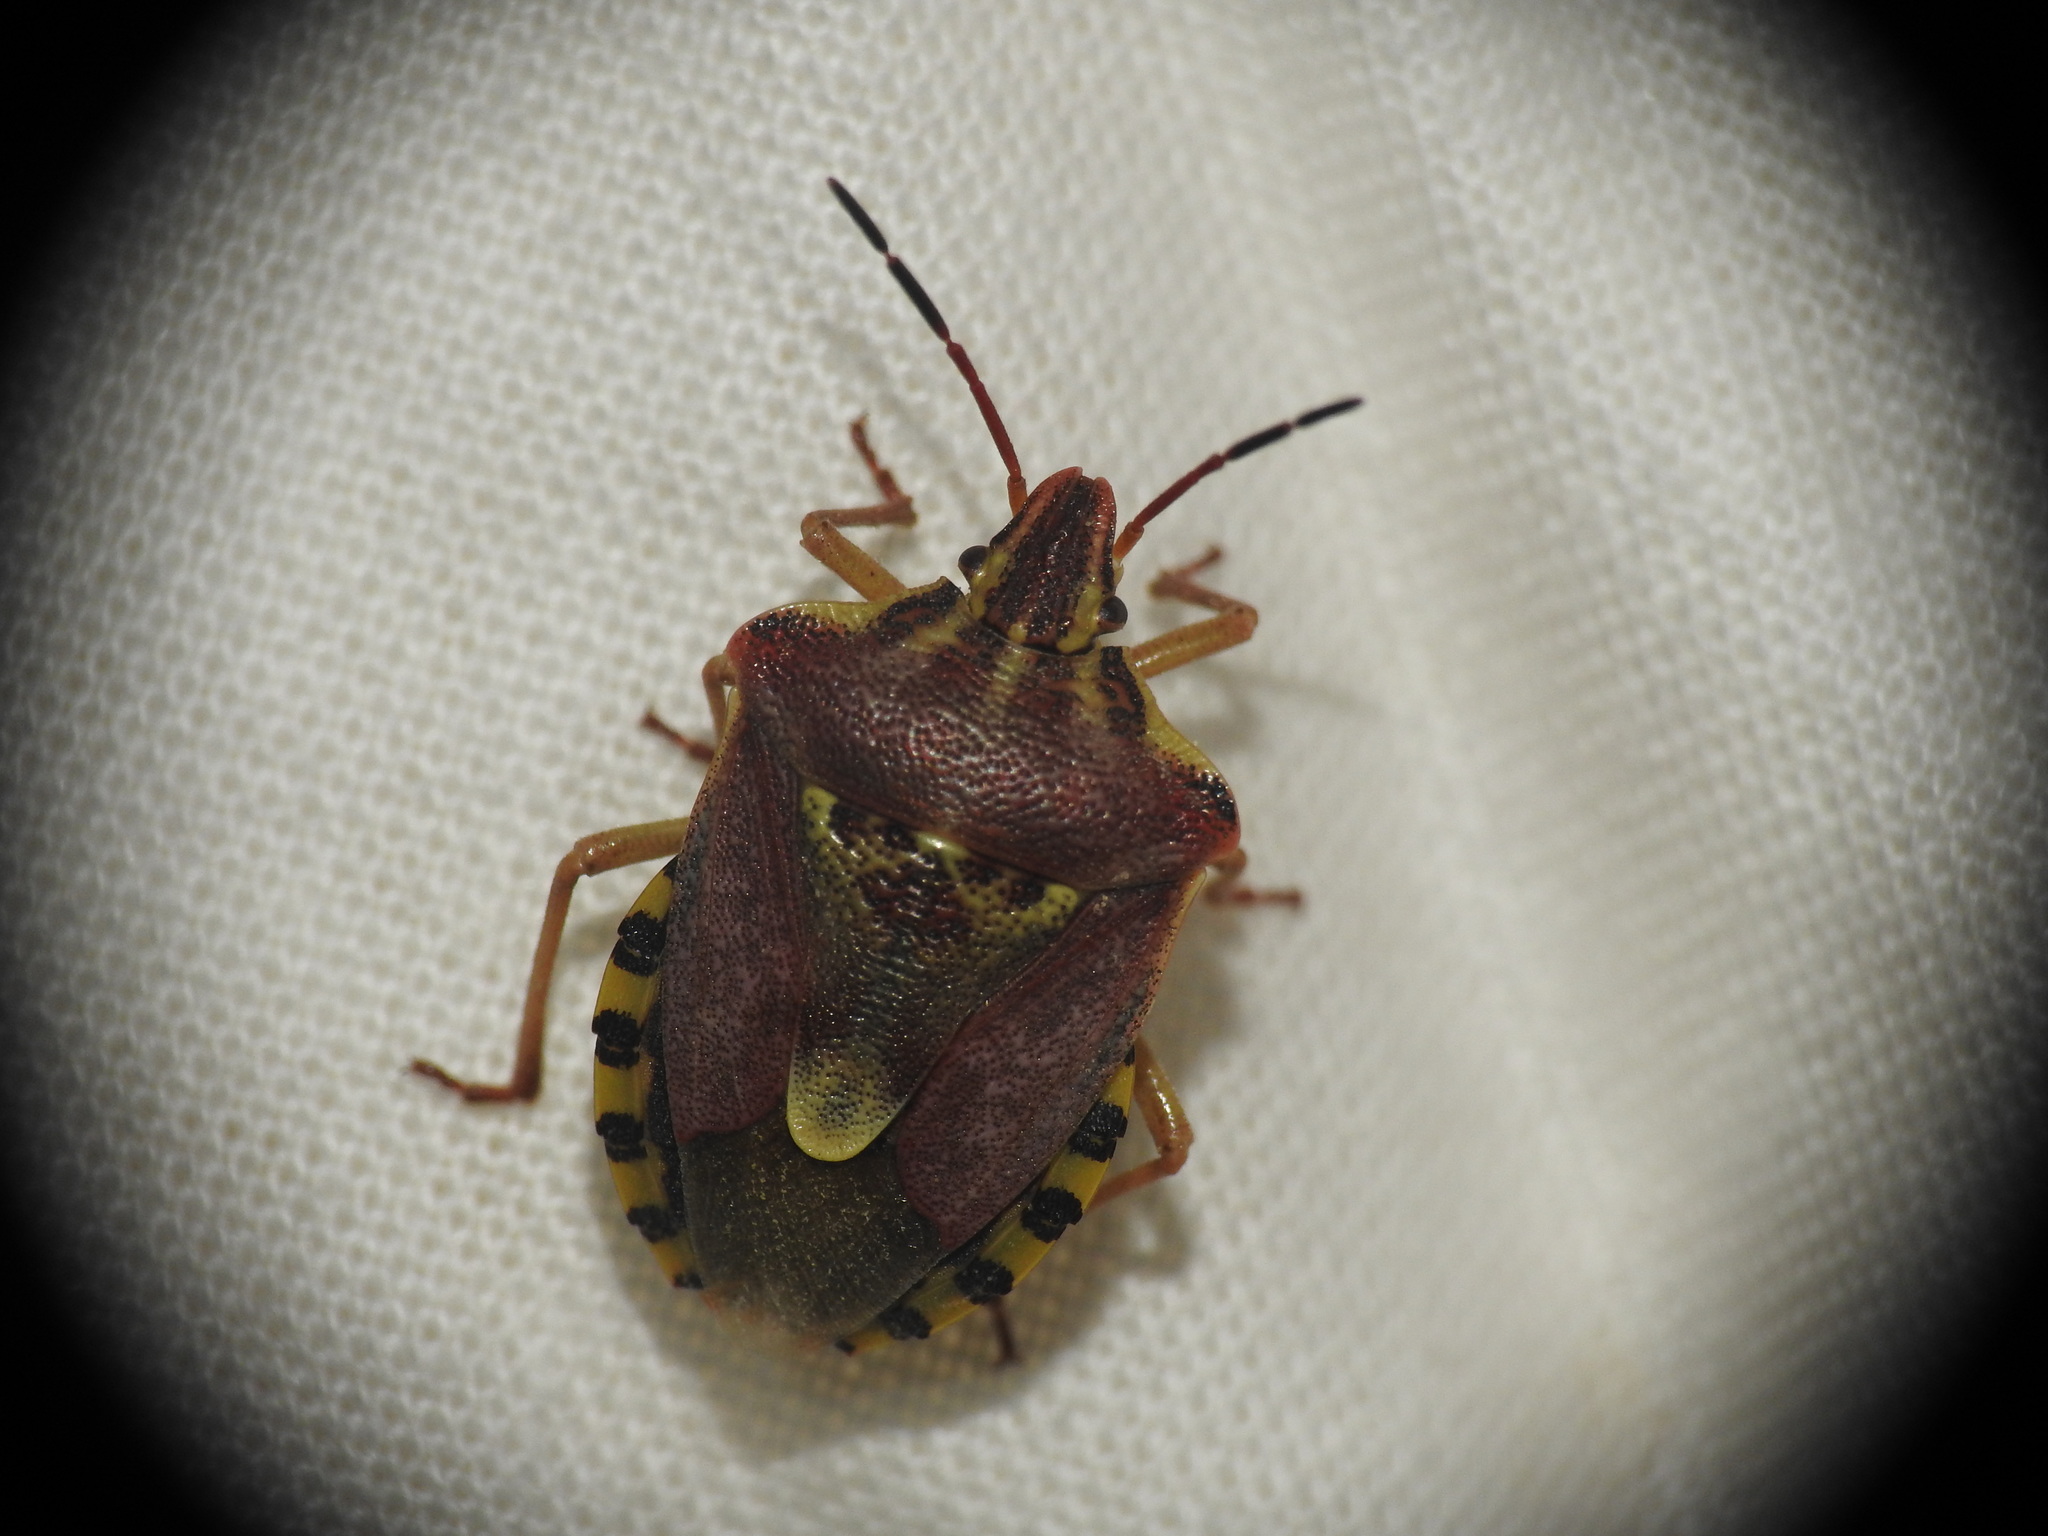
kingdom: Animalia
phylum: Arthropoda
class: Insecta
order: Hemiptera
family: Miridae
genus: Orthops
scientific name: Orthops kalmii
